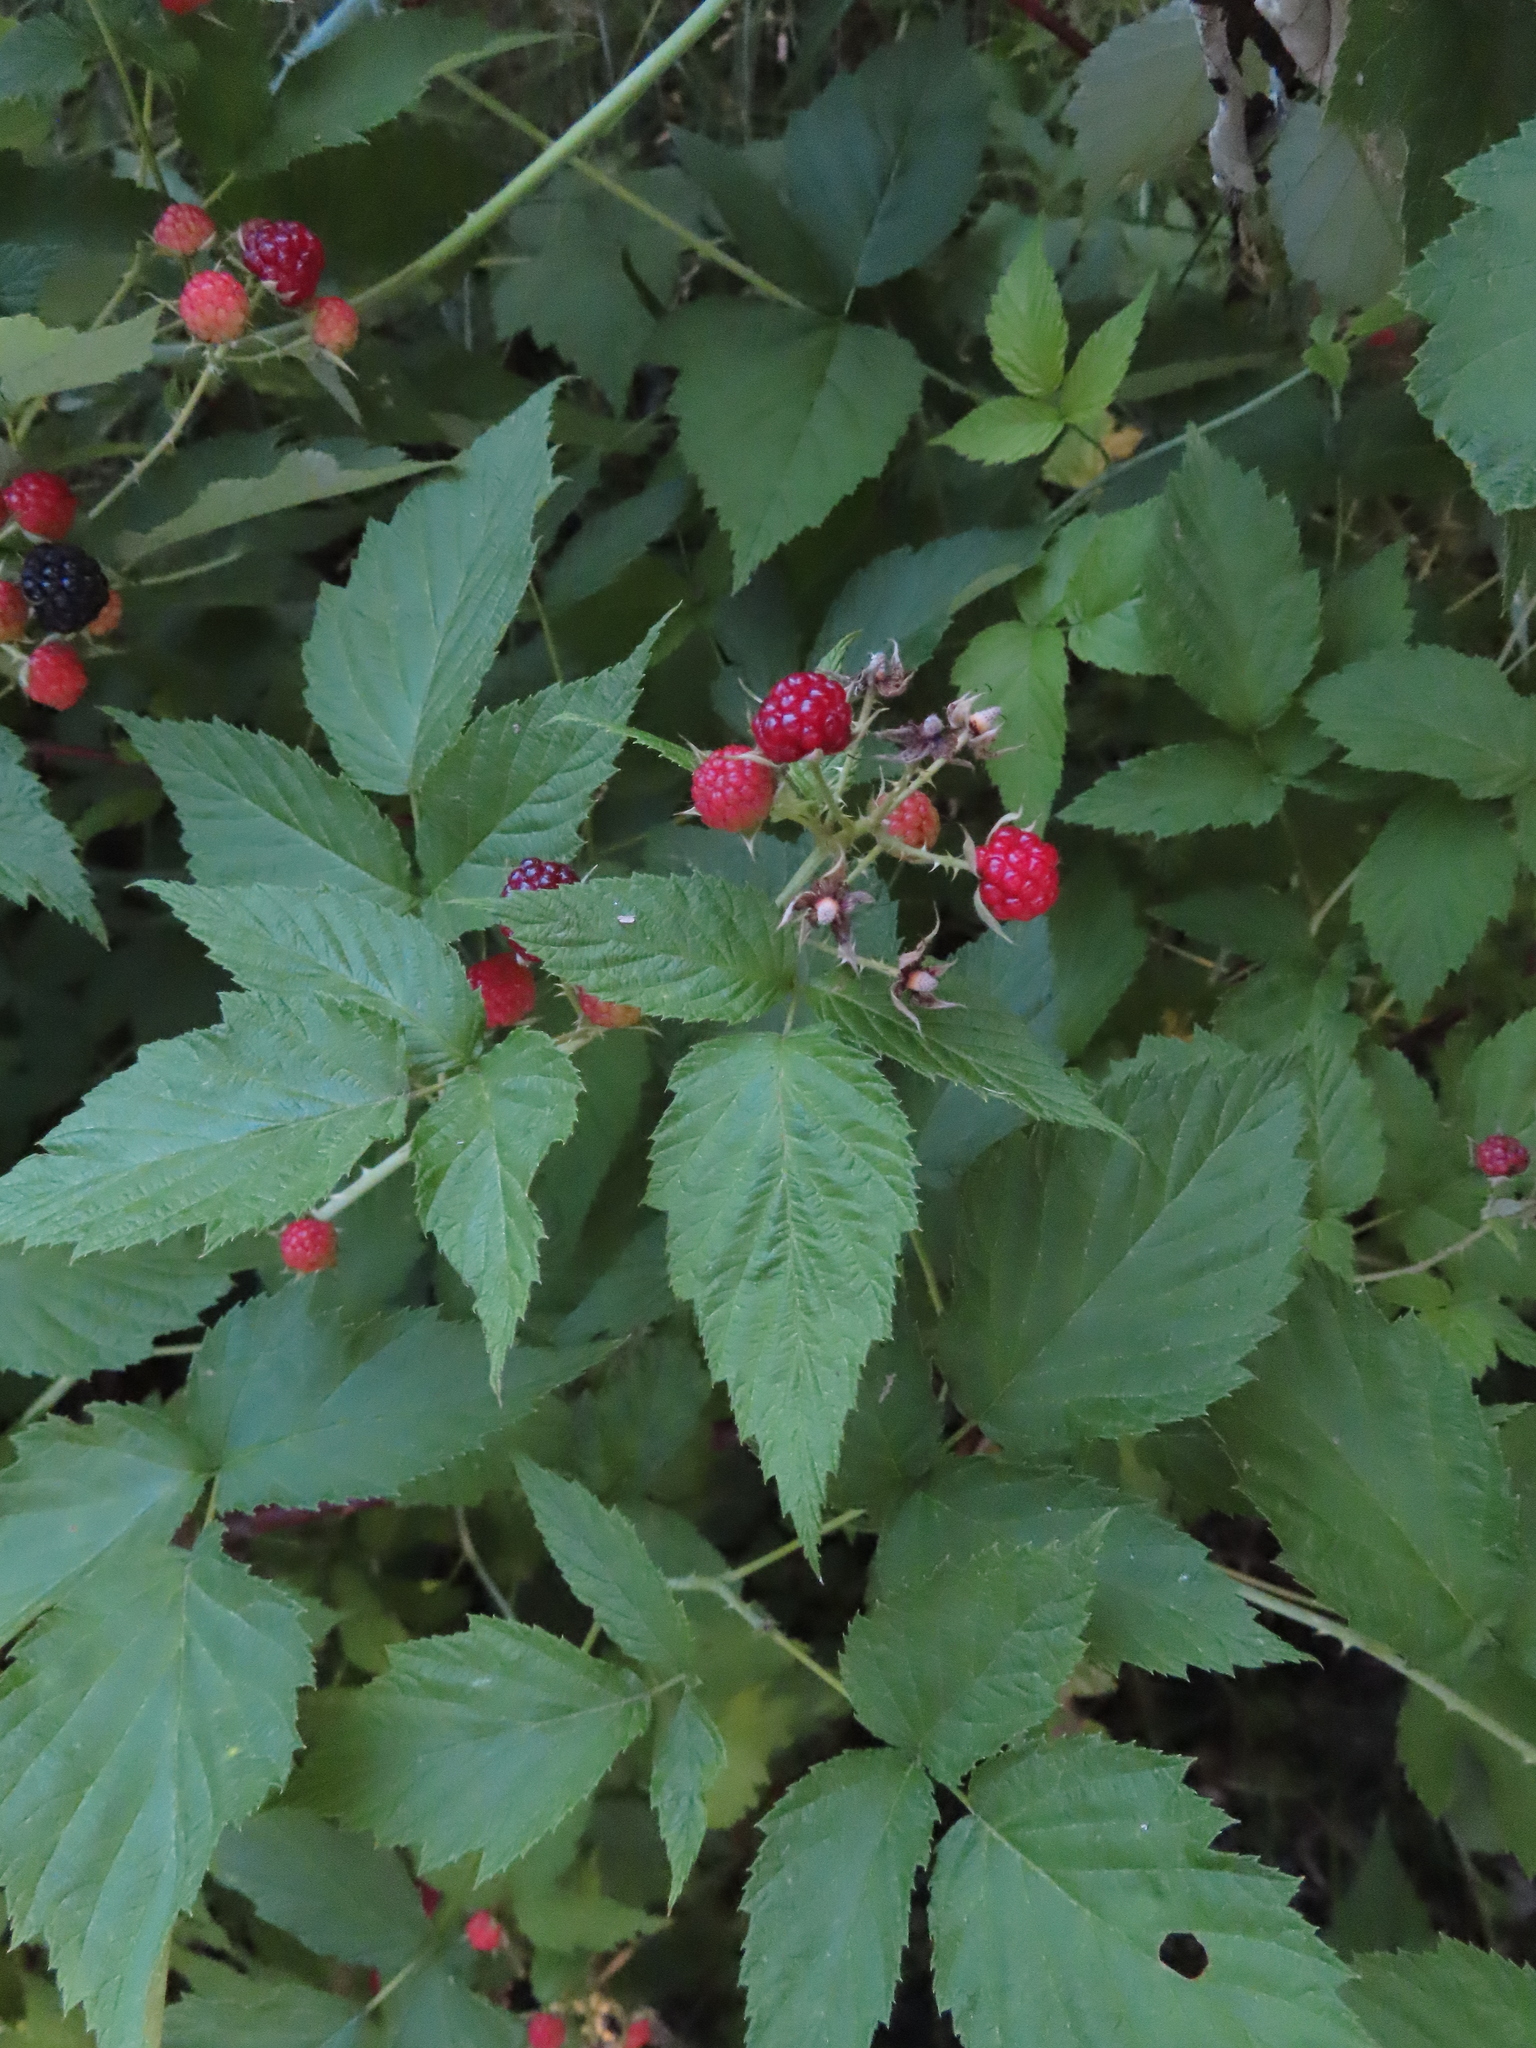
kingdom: Plantae
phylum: Tracheophyta
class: Magnoliopsida
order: Rosales
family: Rosaceae
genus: Rubus
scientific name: Rubus occidentalis
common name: Black raspberry
